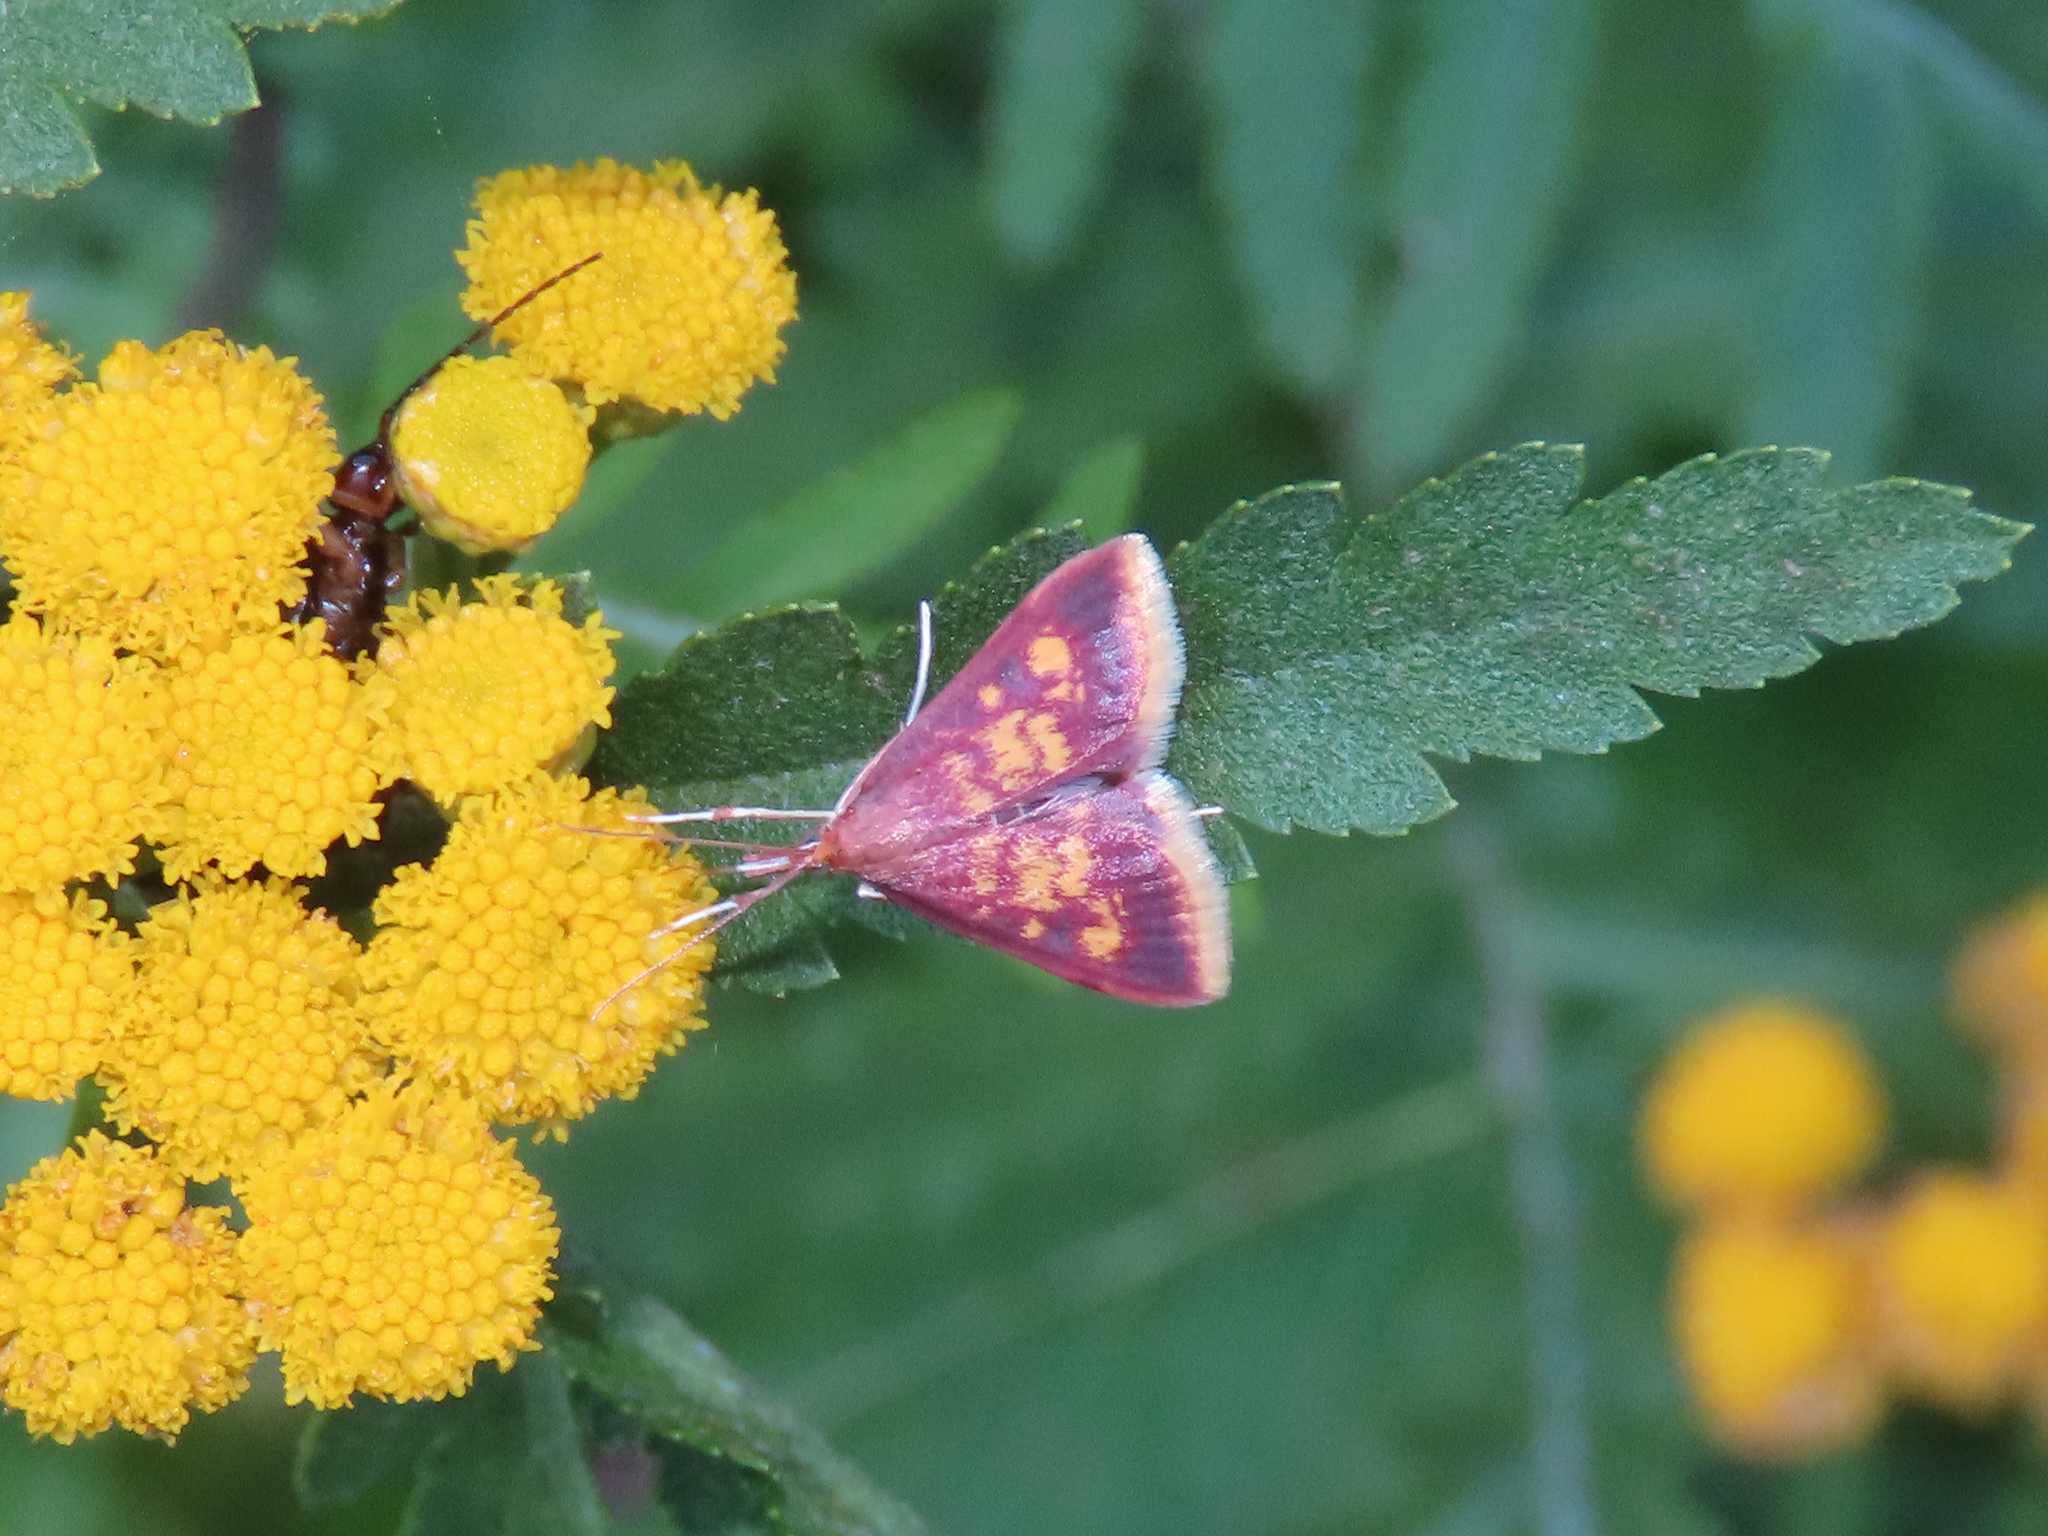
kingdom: Animalia
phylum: Arthropoda
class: Insecta
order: Lepidoptera
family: Crambidae
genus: Pyrausta
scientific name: Pyrausta acrionalis
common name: Mint-loving pyrausta moth
